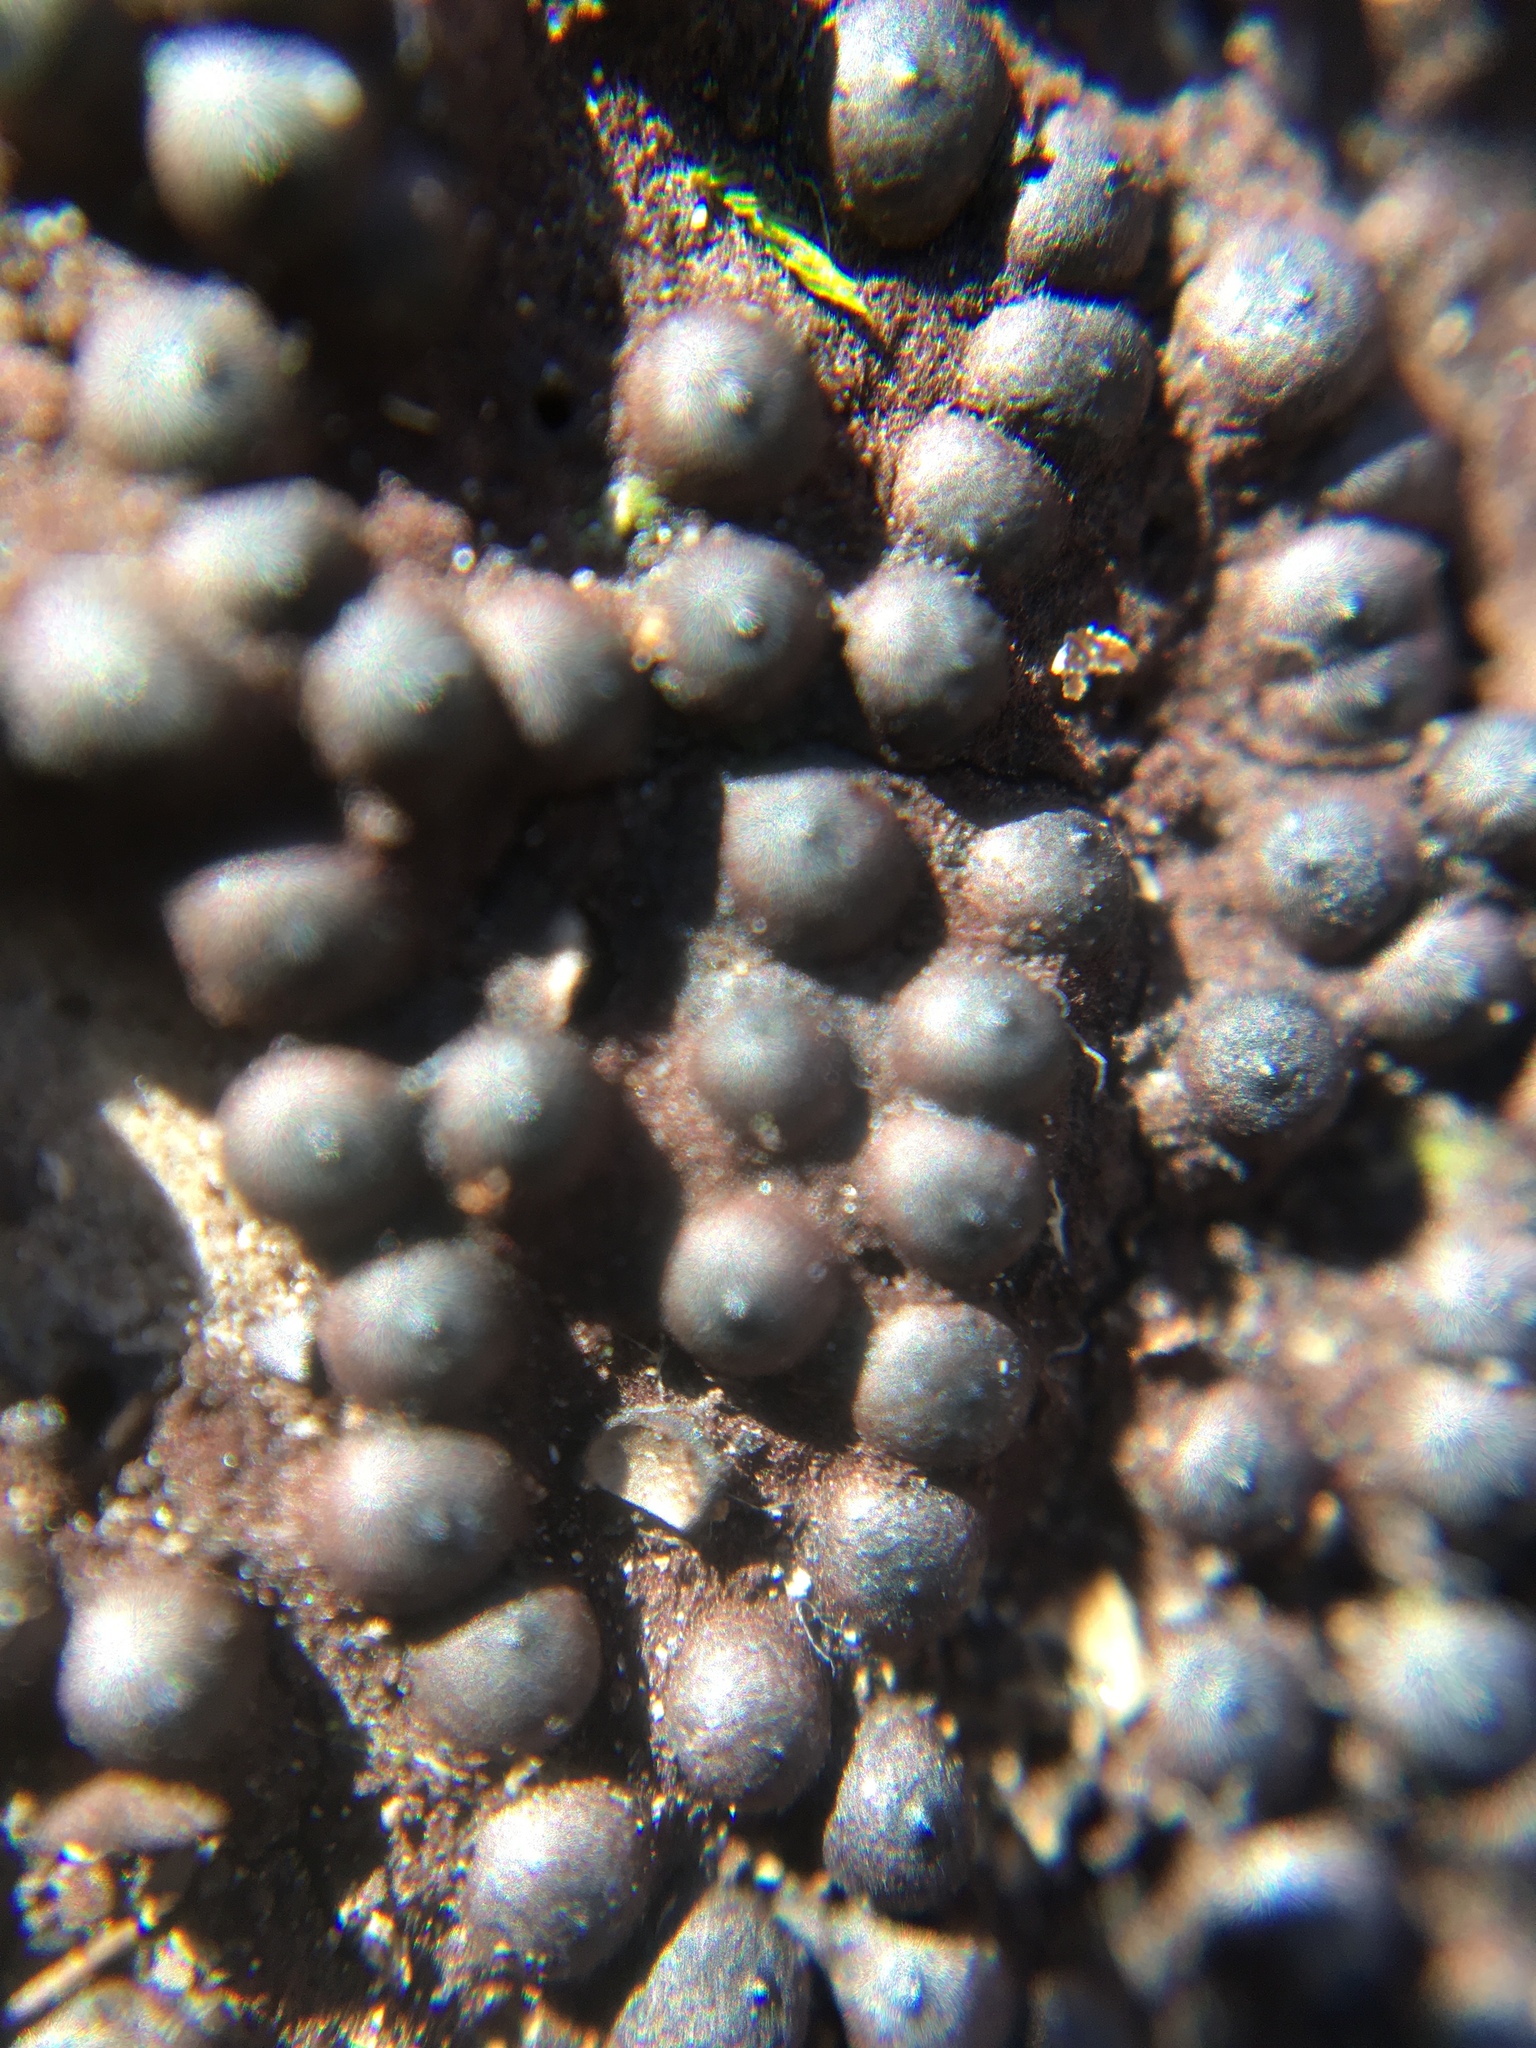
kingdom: Fungi
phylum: Ascomycota
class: Sordariomycetes
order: Xylariales
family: Xylariaceae
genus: Rosellinia
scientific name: Rosellinia corticium
